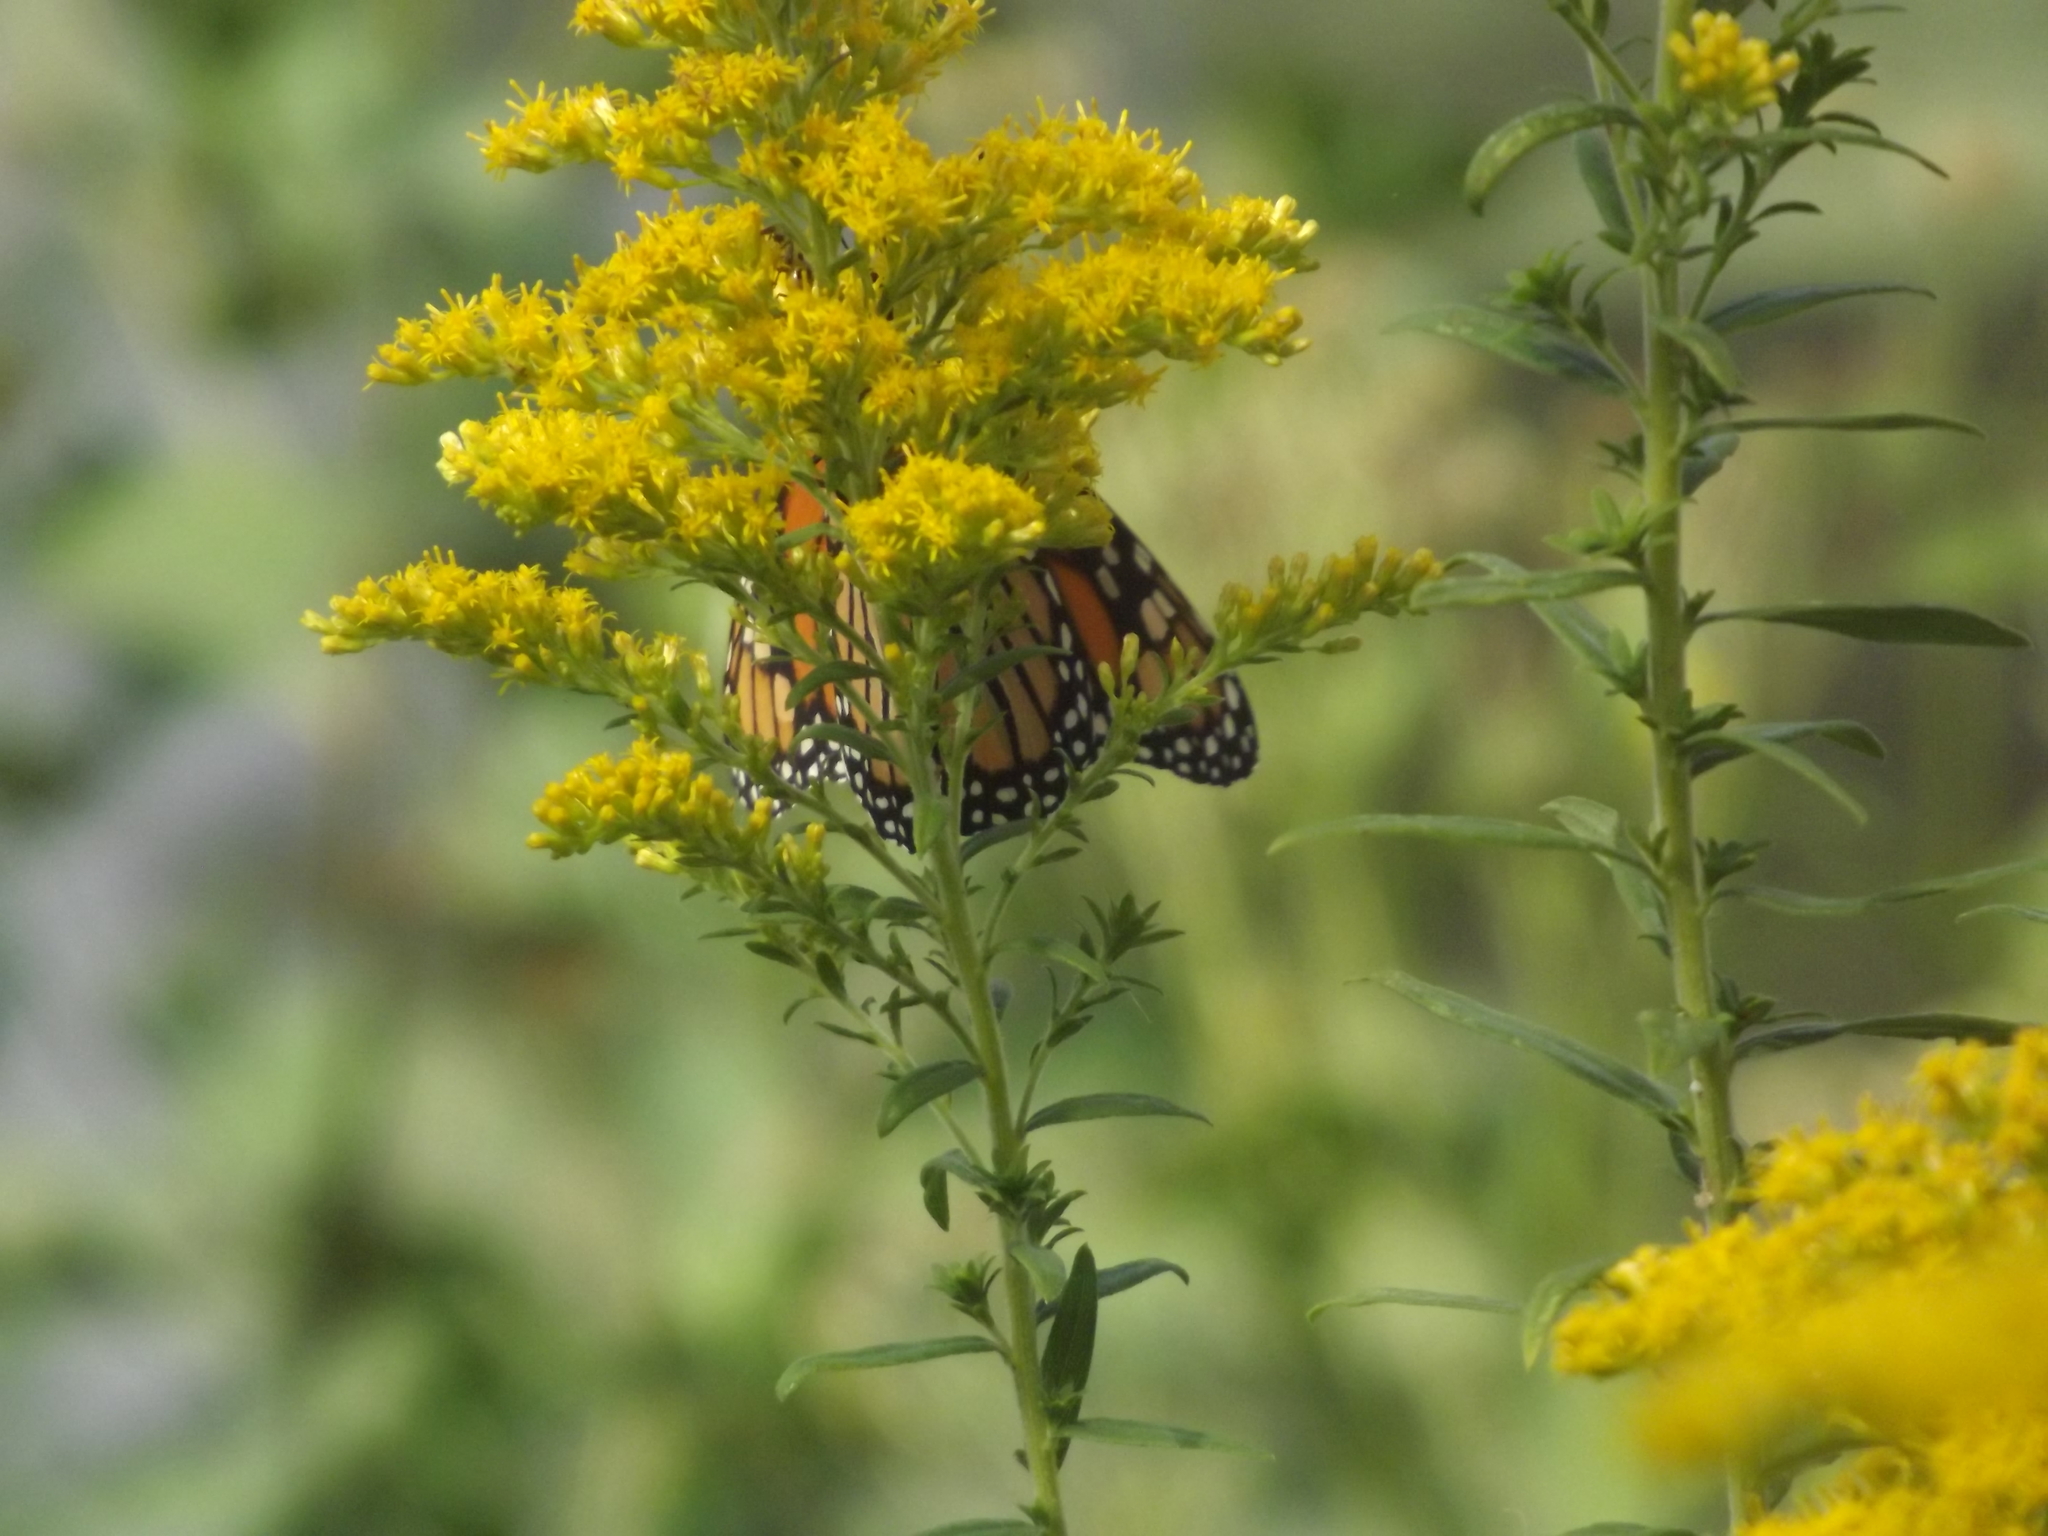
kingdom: Animalia
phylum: Arthropoda
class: Insecta
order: Lepidoptera
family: Nymphalidae
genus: Danaus
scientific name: Danaus plexippus
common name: Monarch
